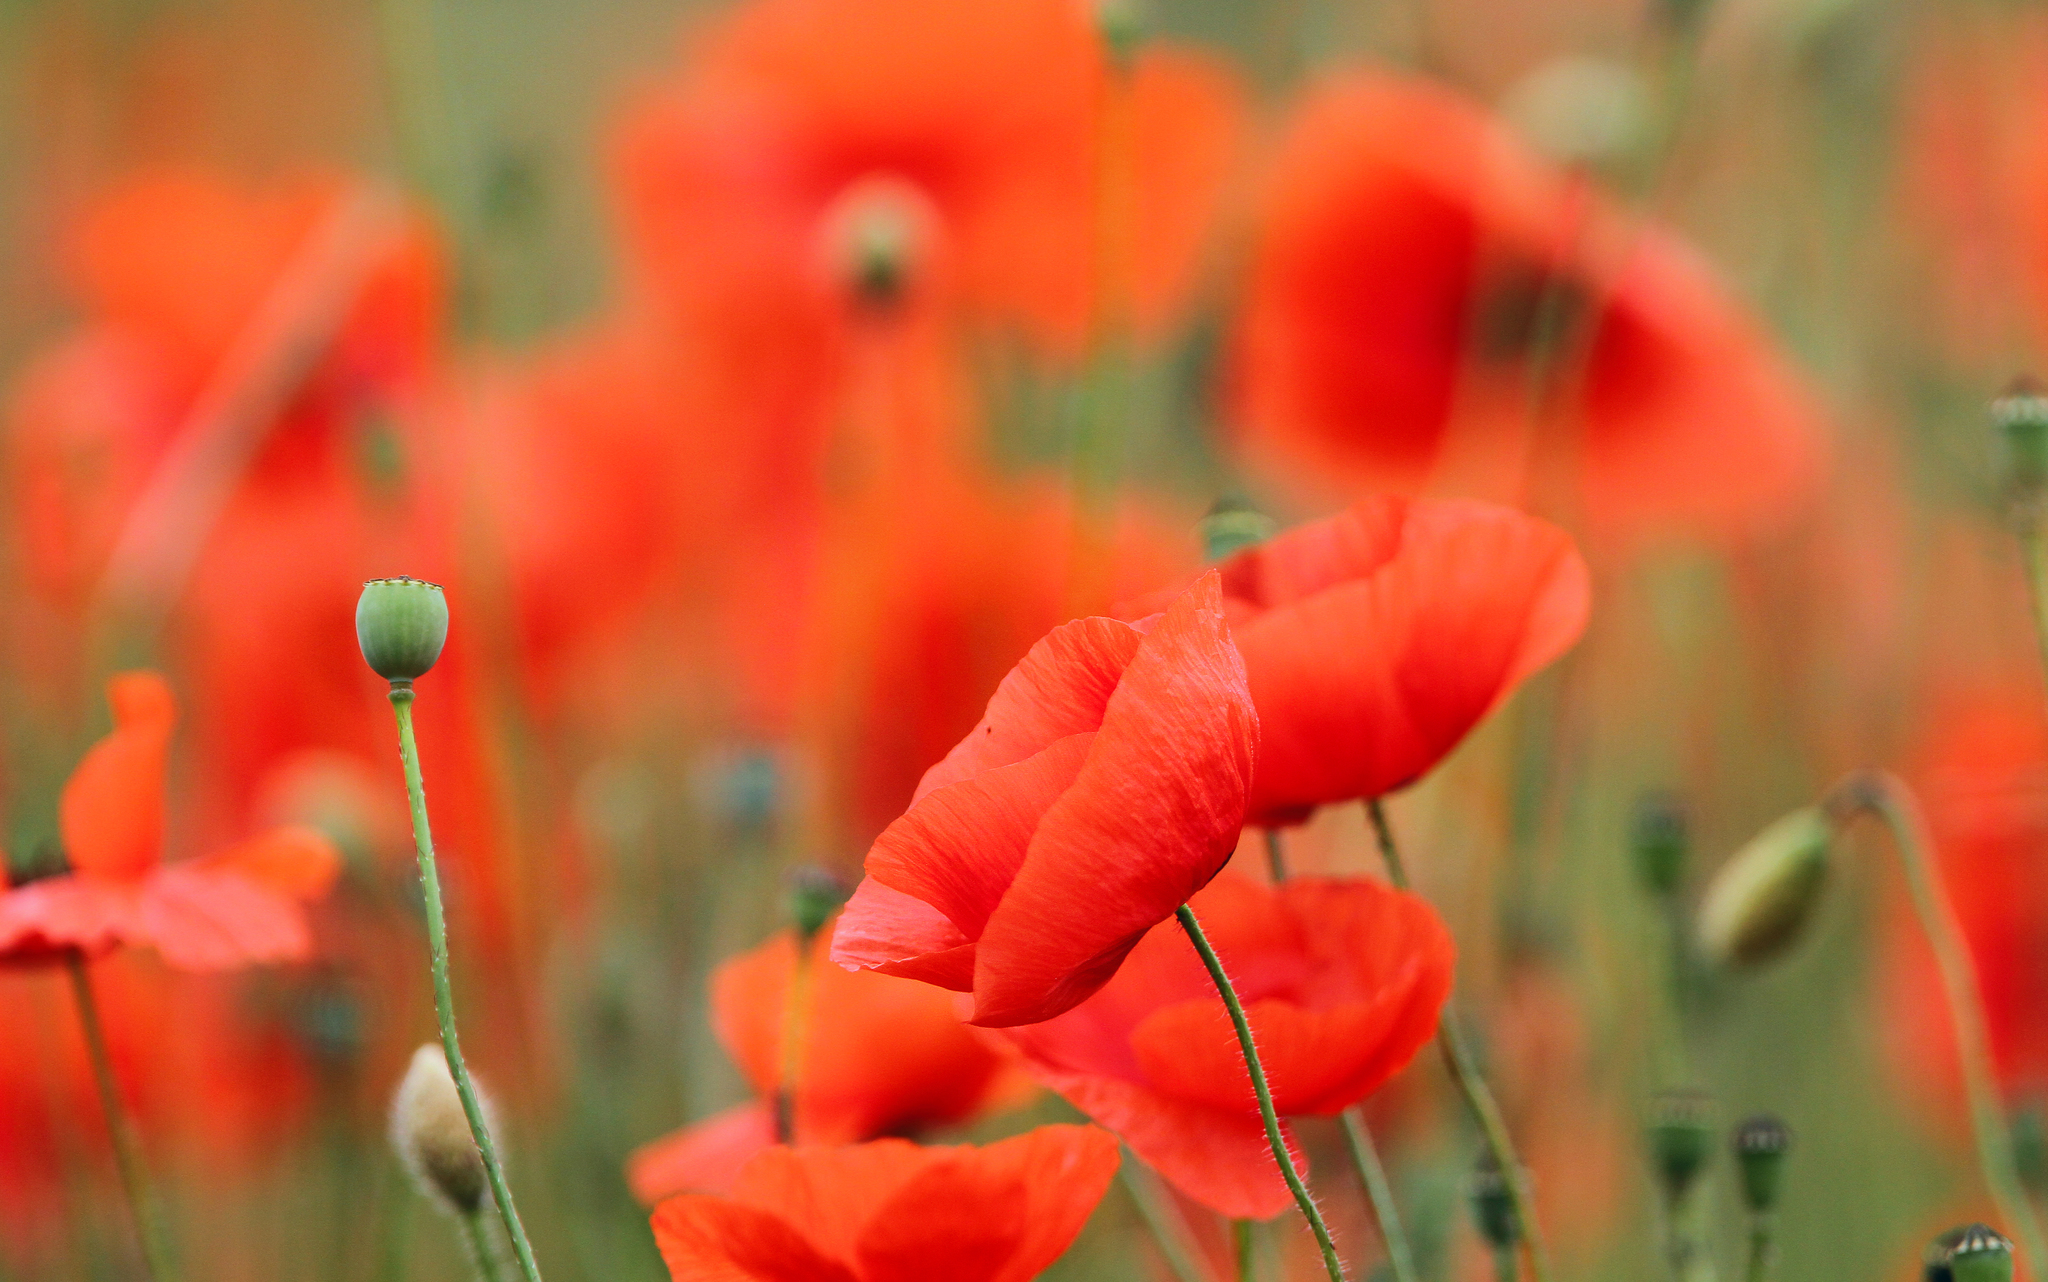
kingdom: Plantae
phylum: Tracheophyta
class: Magnoliopsida
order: Ranunculales
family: Papaveraceae
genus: Papaver
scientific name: Papaver rhoeas
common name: Corn poppy
